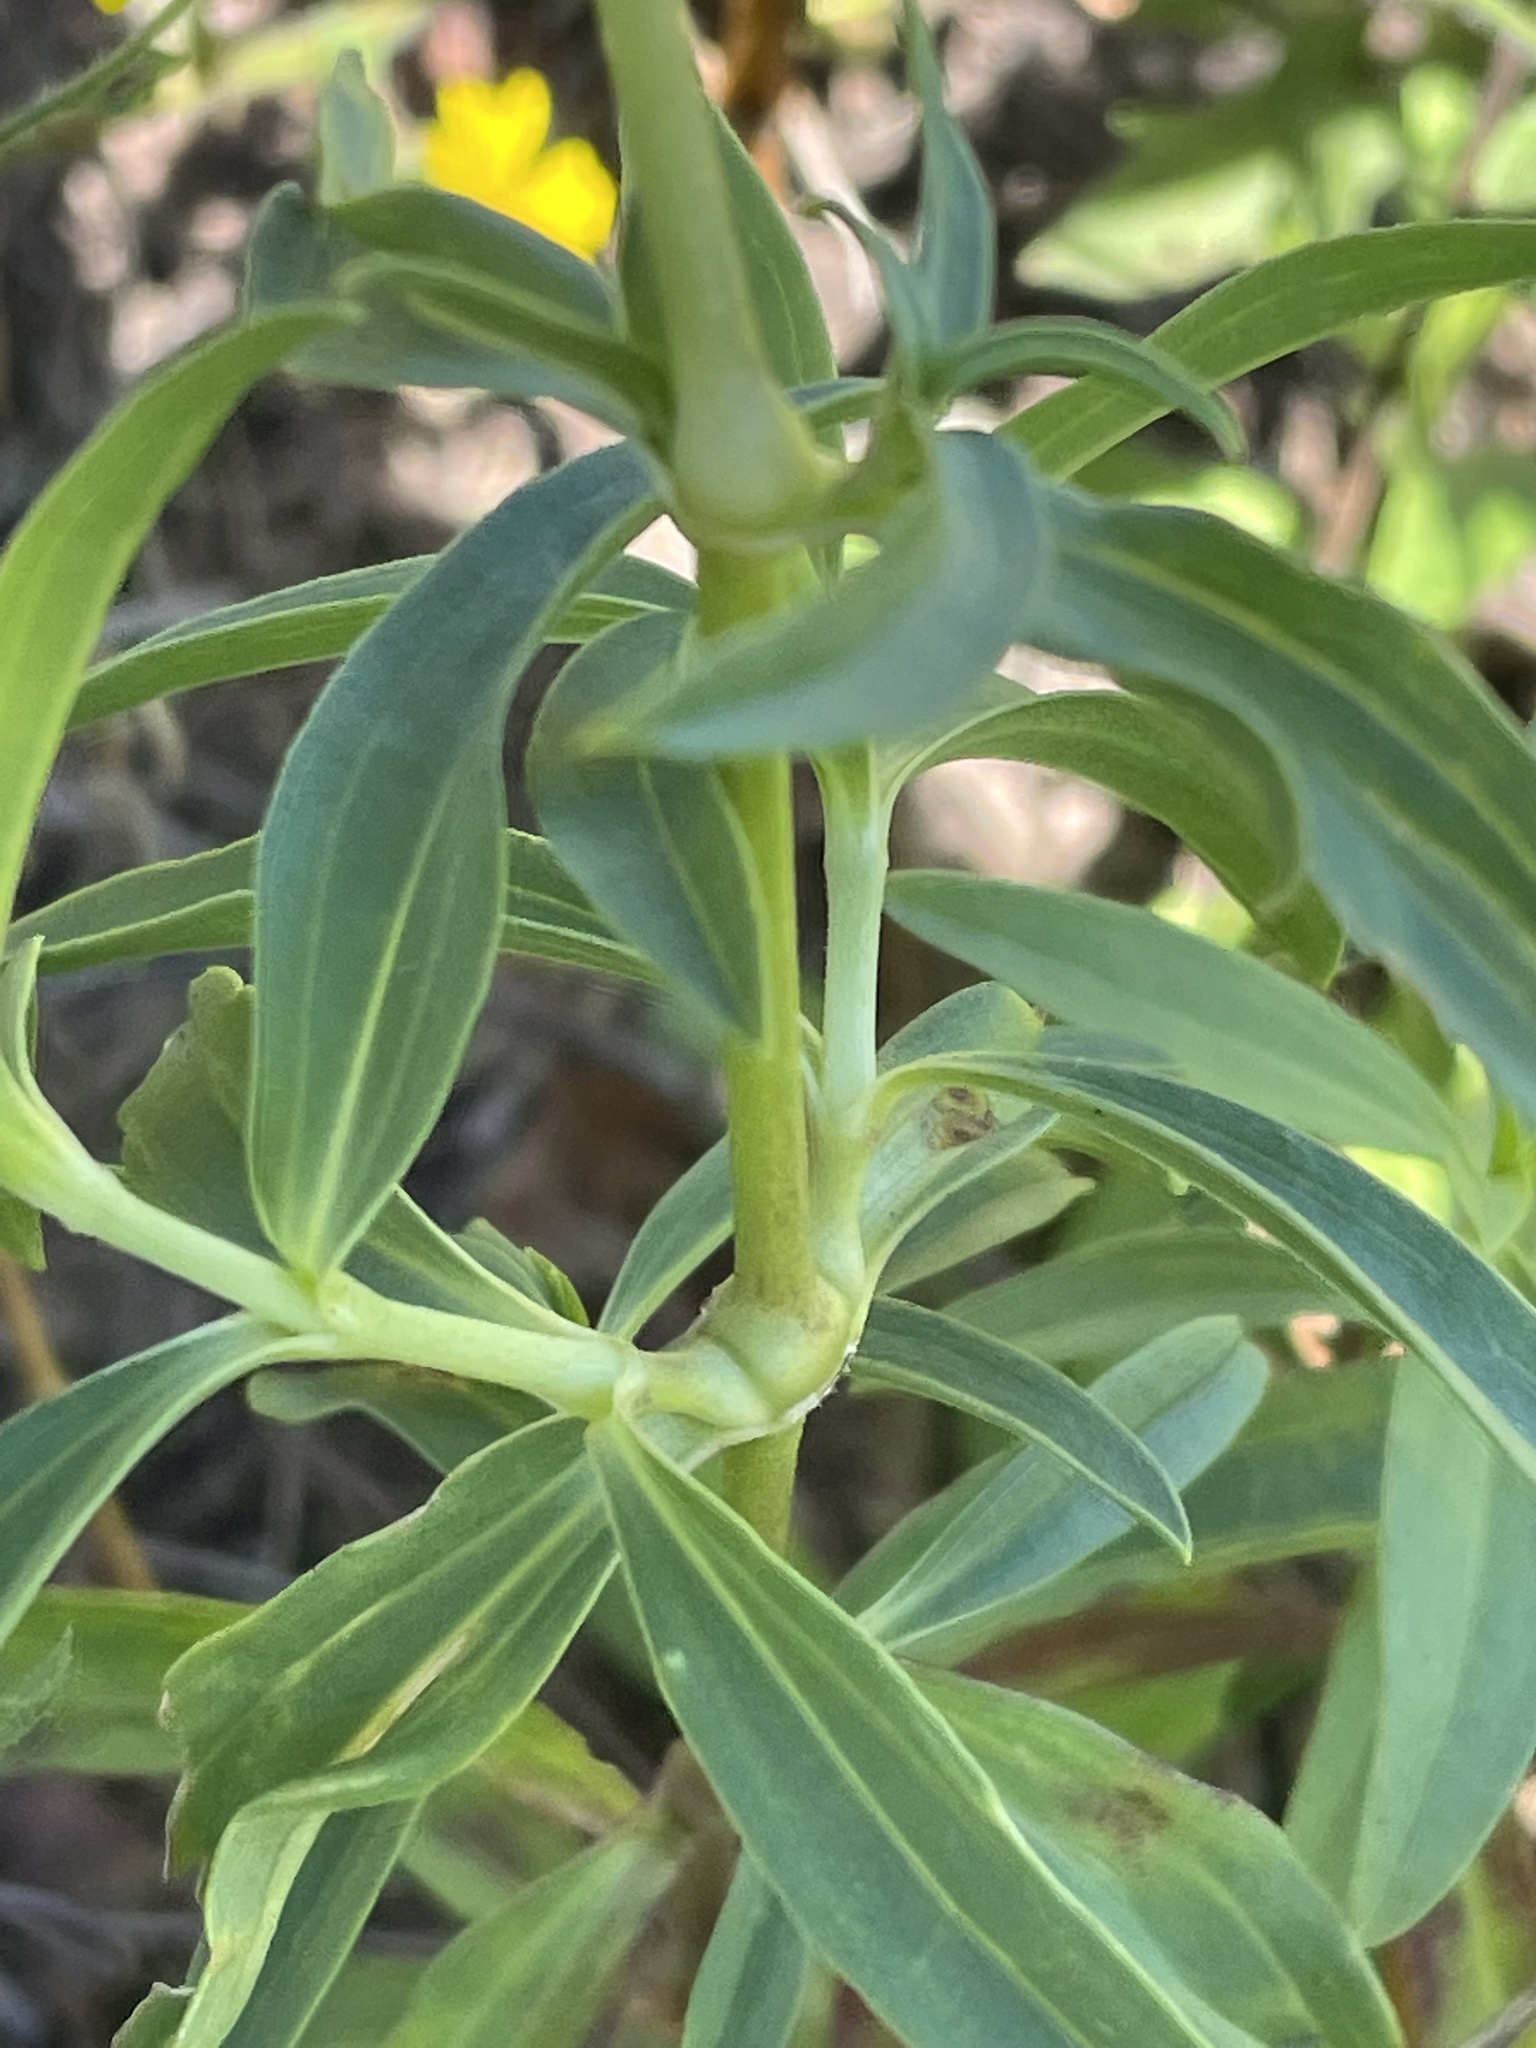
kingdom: Plantae
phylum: Tracheophyta
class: Magnoliopsida
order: Caryophyllales
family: Caryophyllaceae
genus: Saponaria
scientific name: Saponaria officinalis
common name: Soapwort
